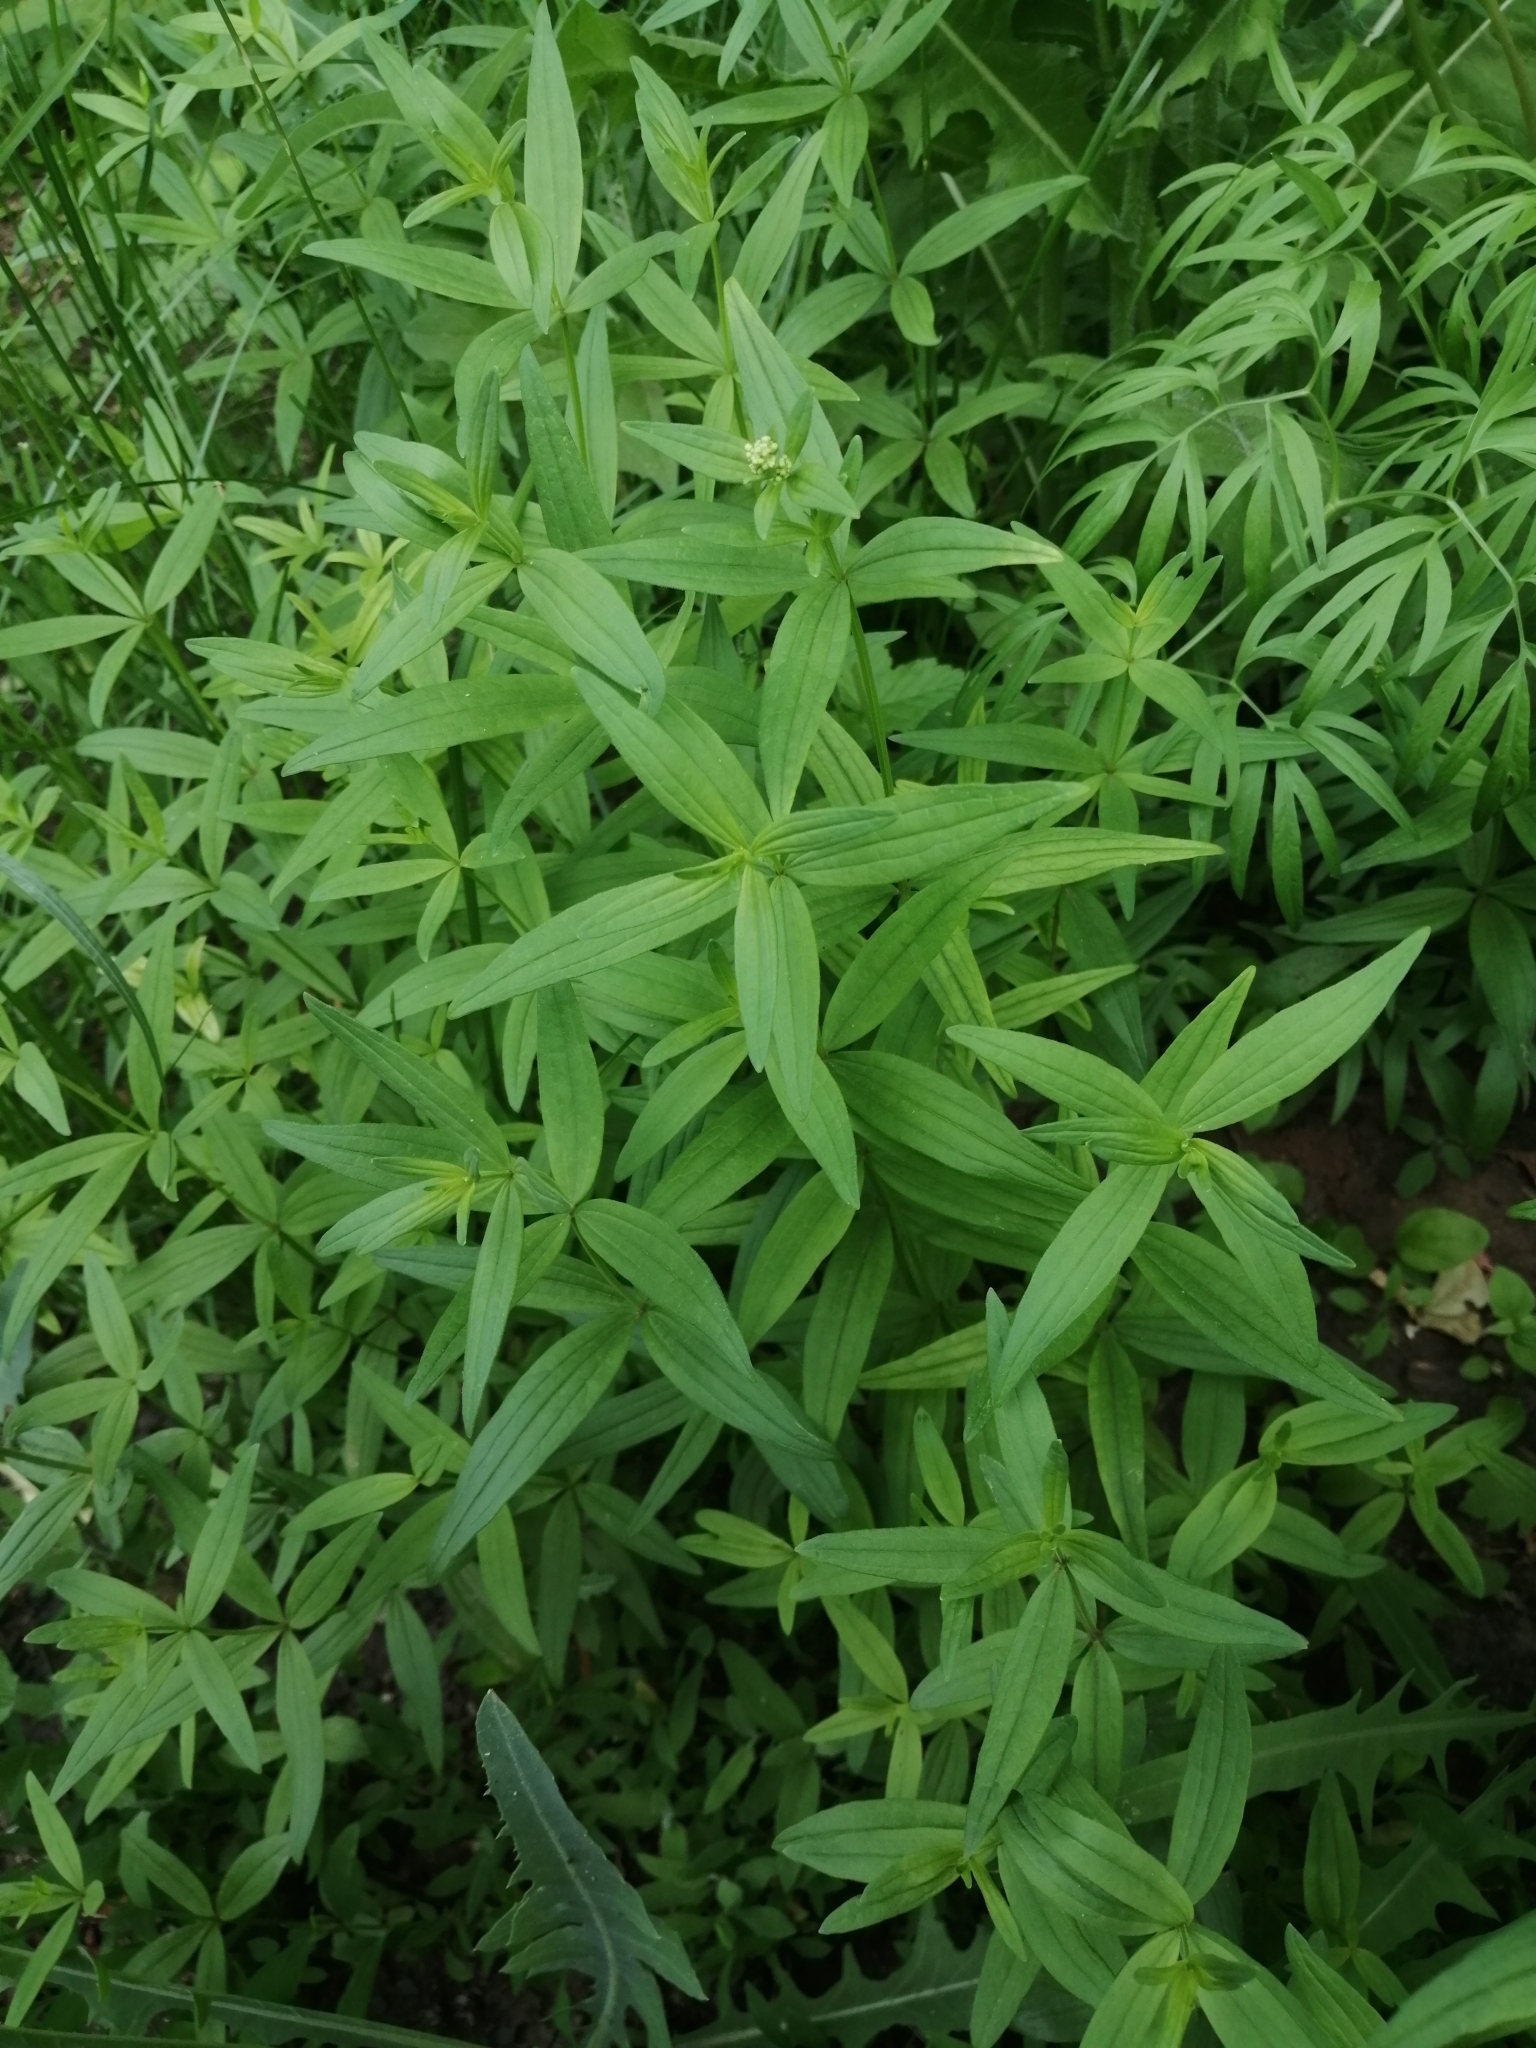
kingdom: Plantae
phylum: Tracheophyta
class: Magnoliopsida
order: Gentianales
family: Rubiaceae
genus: Galium
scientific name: Galium rubioides
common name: European bedstraw
